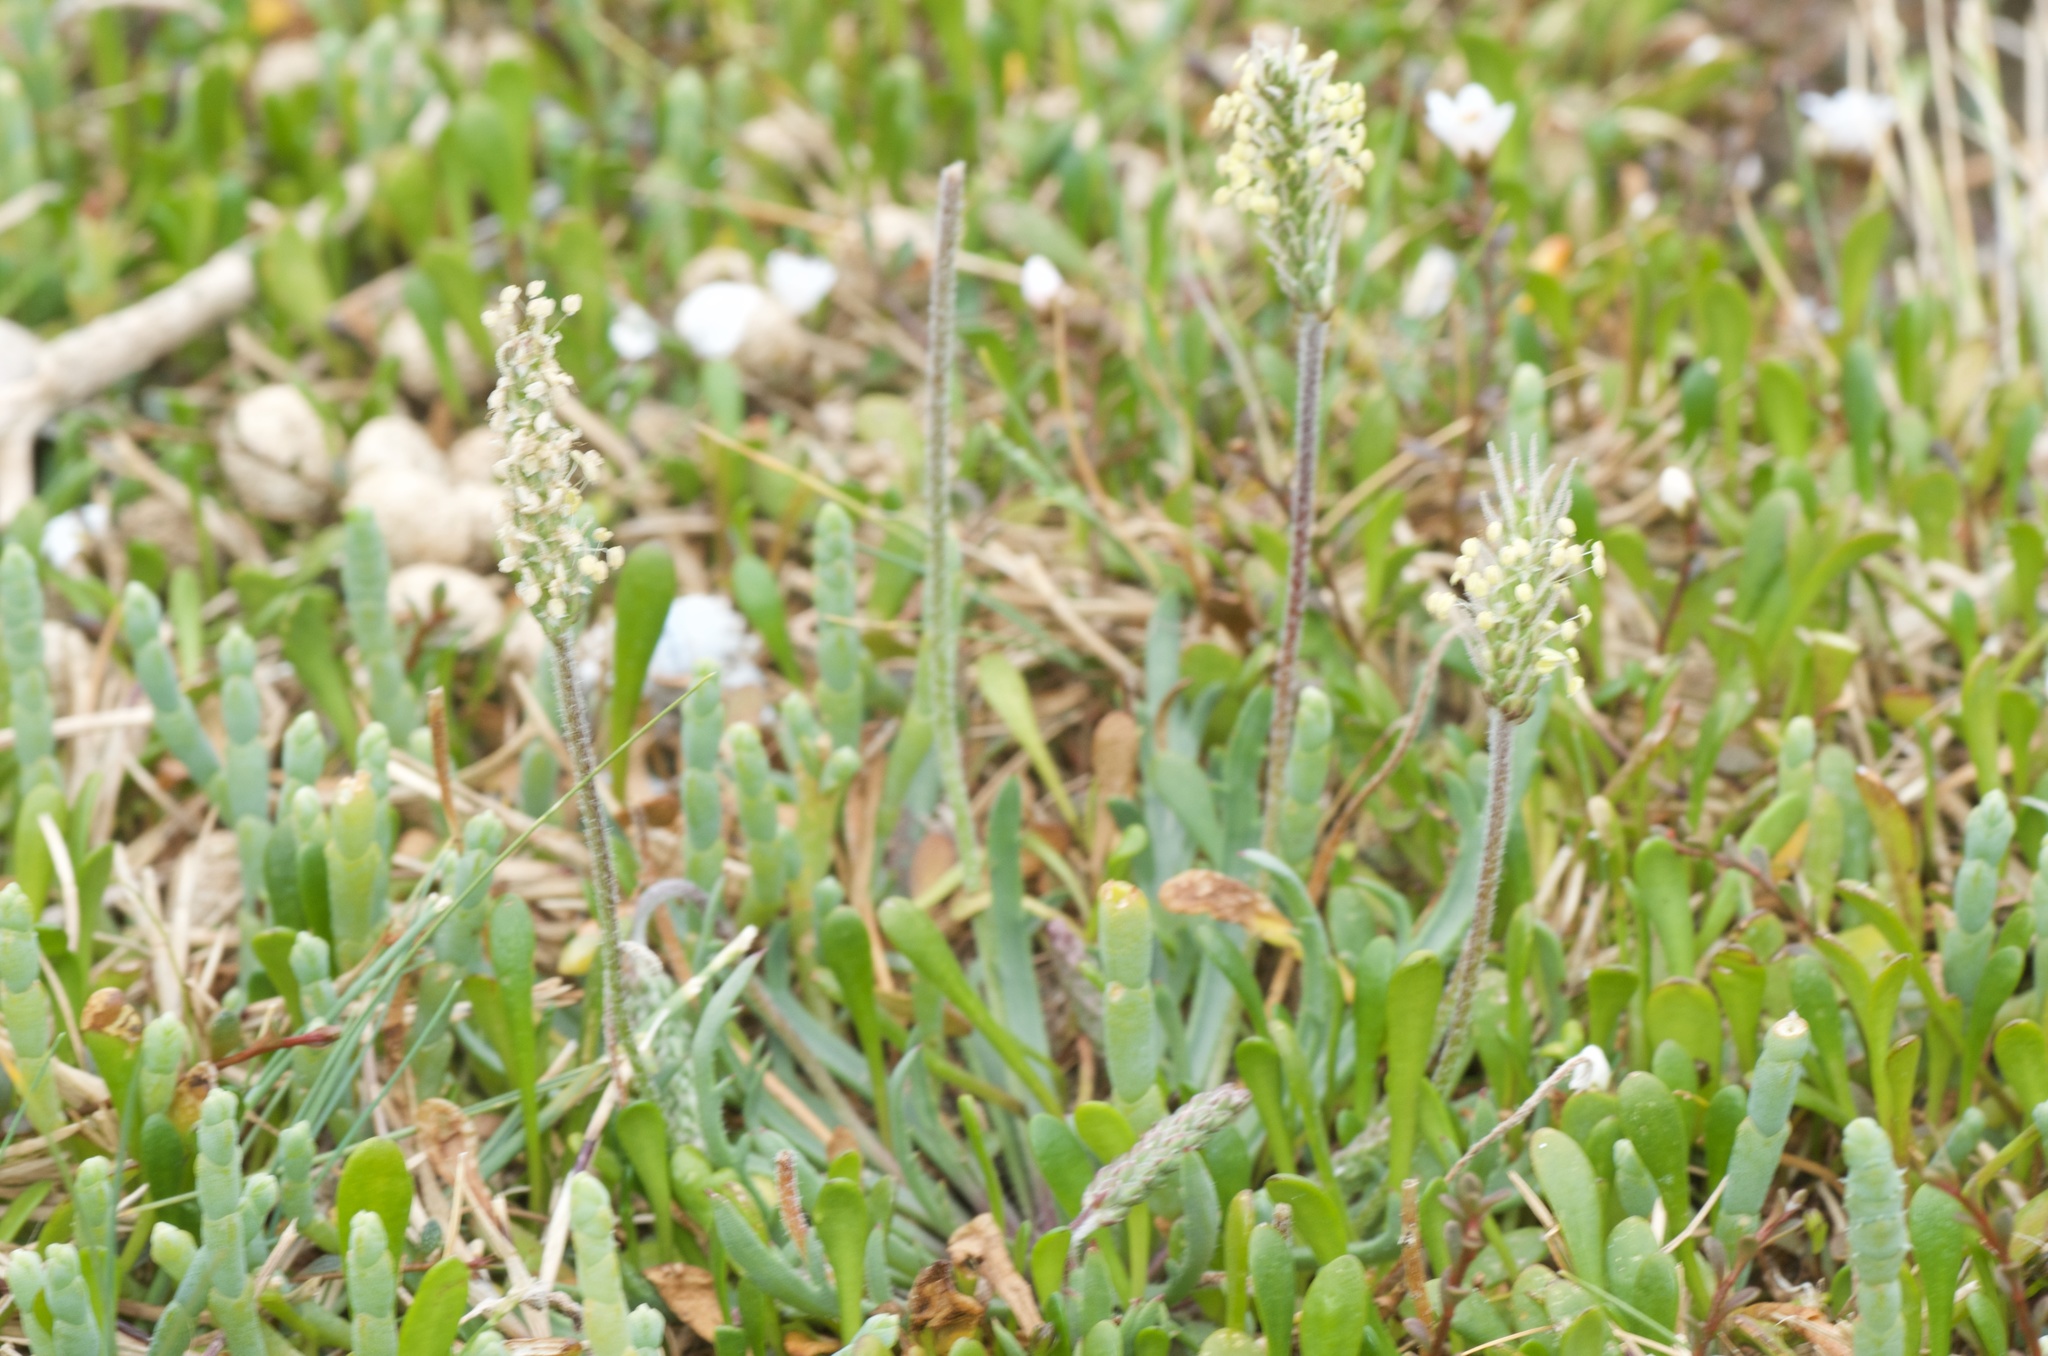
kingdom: Plantae
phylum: Tracheophyta
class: Magnoliopsida
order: Lamiales
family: Plantaginaceae
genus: Plantago
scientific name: Plantago coronopus
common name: Buck's-horn plantain
